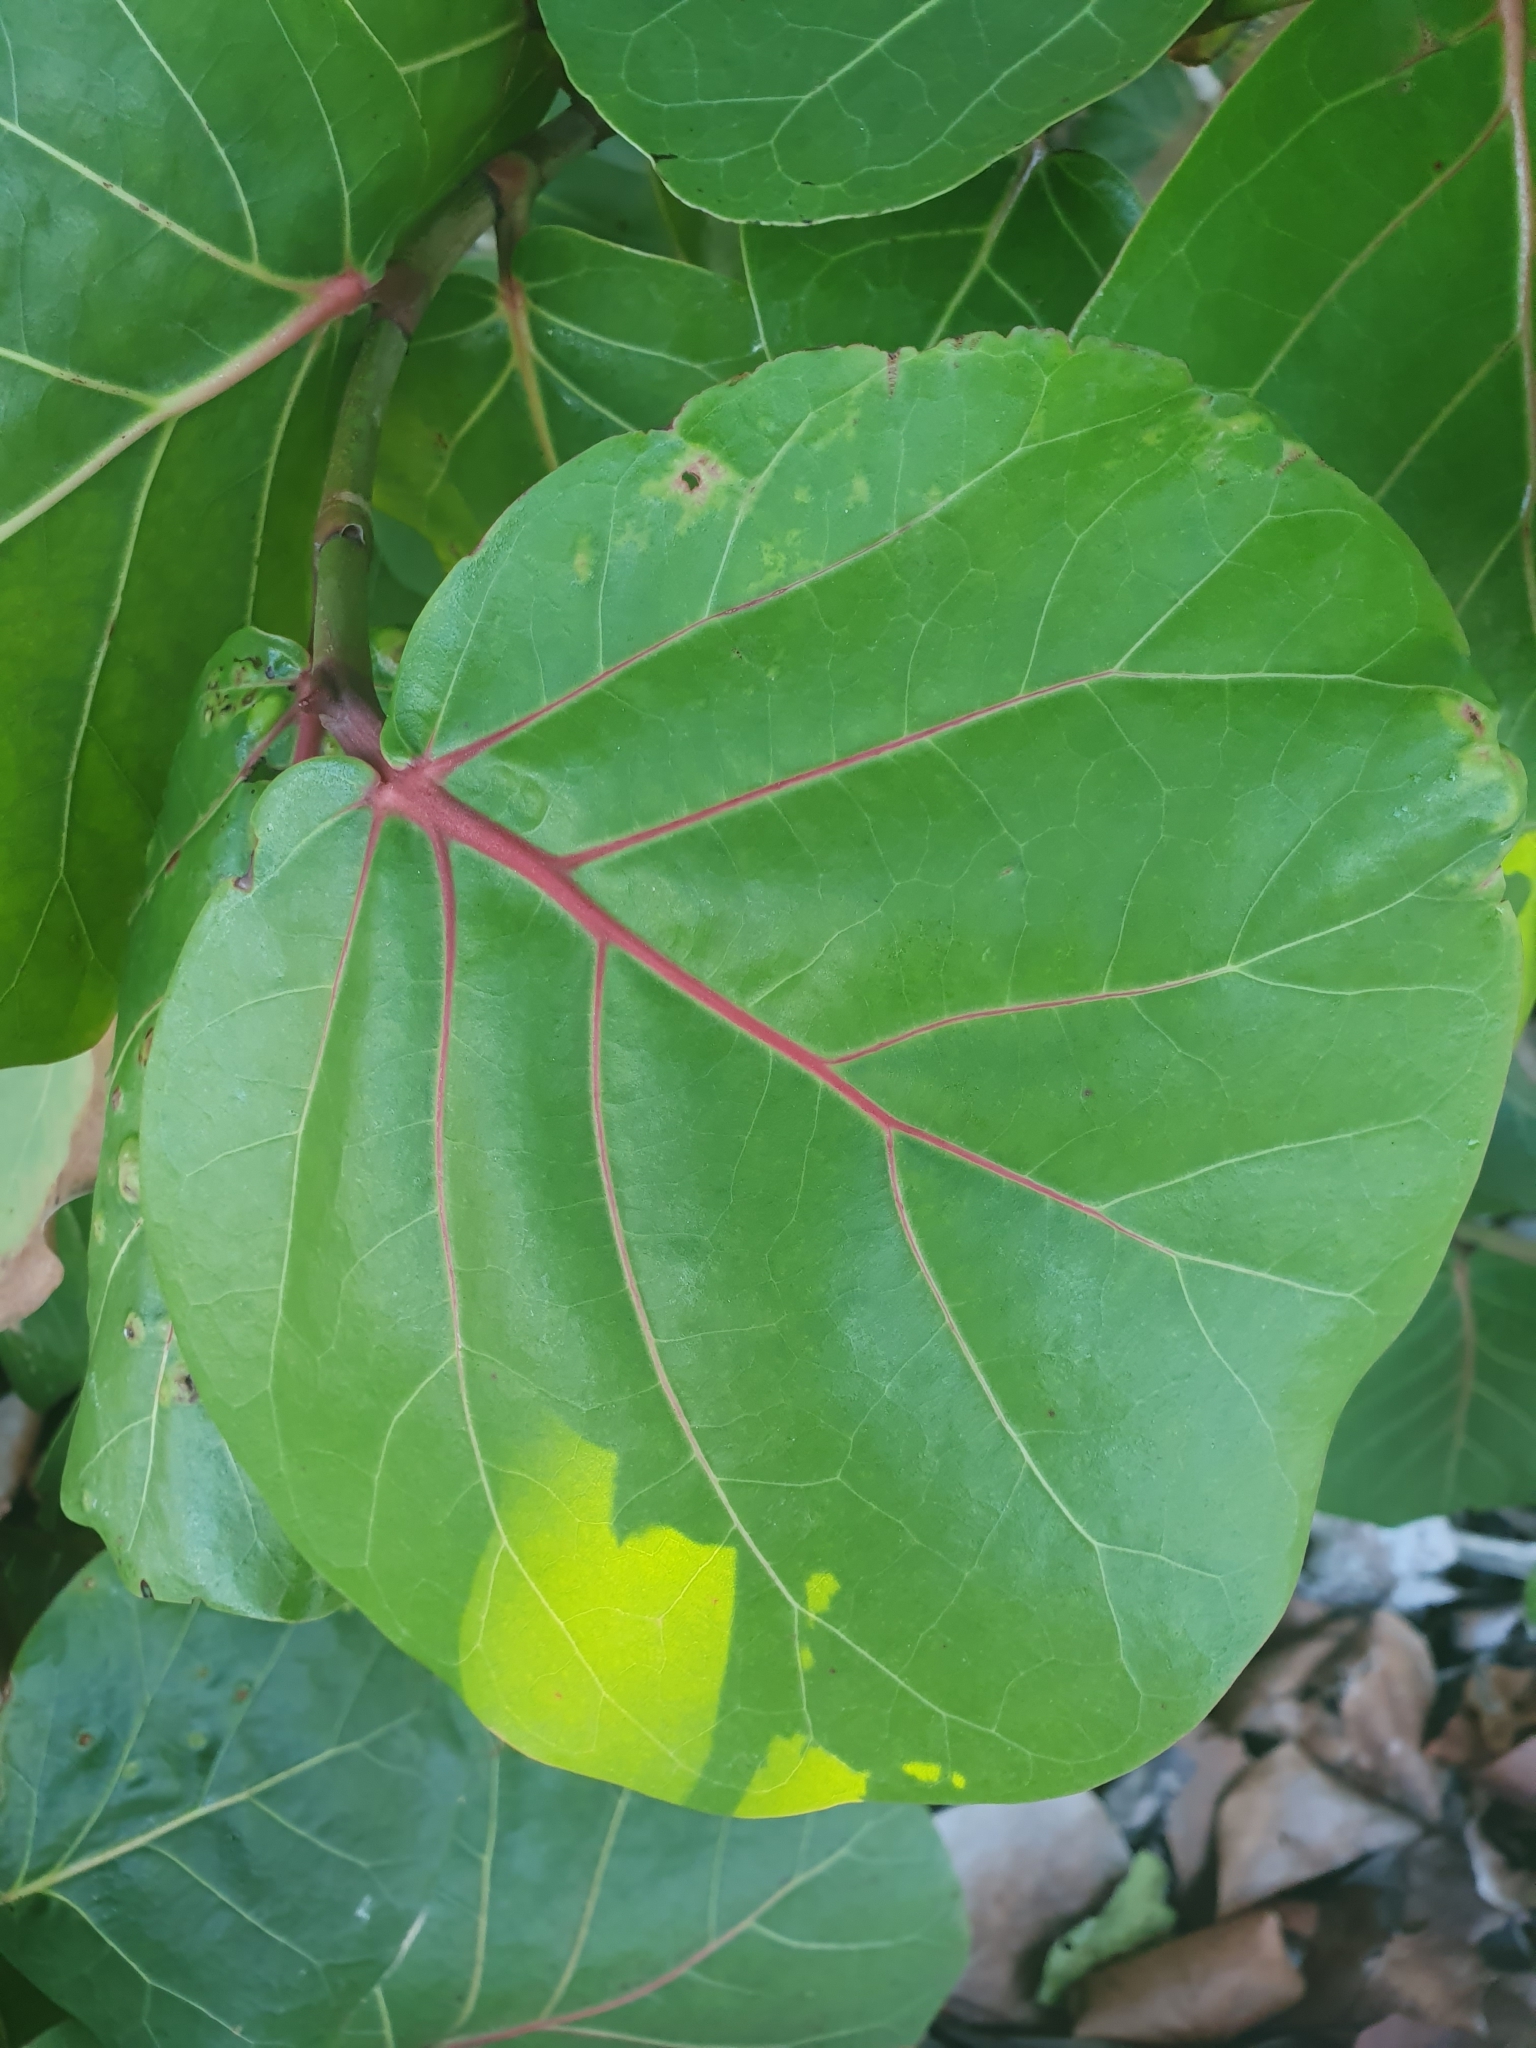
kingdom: Plantae
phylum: Tracheophyta
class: Magnoliopsida
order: Caryophyllales
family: Polygonaceae
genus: Coccoloba
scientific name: Coccoloba uvifera
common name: Seagrape
